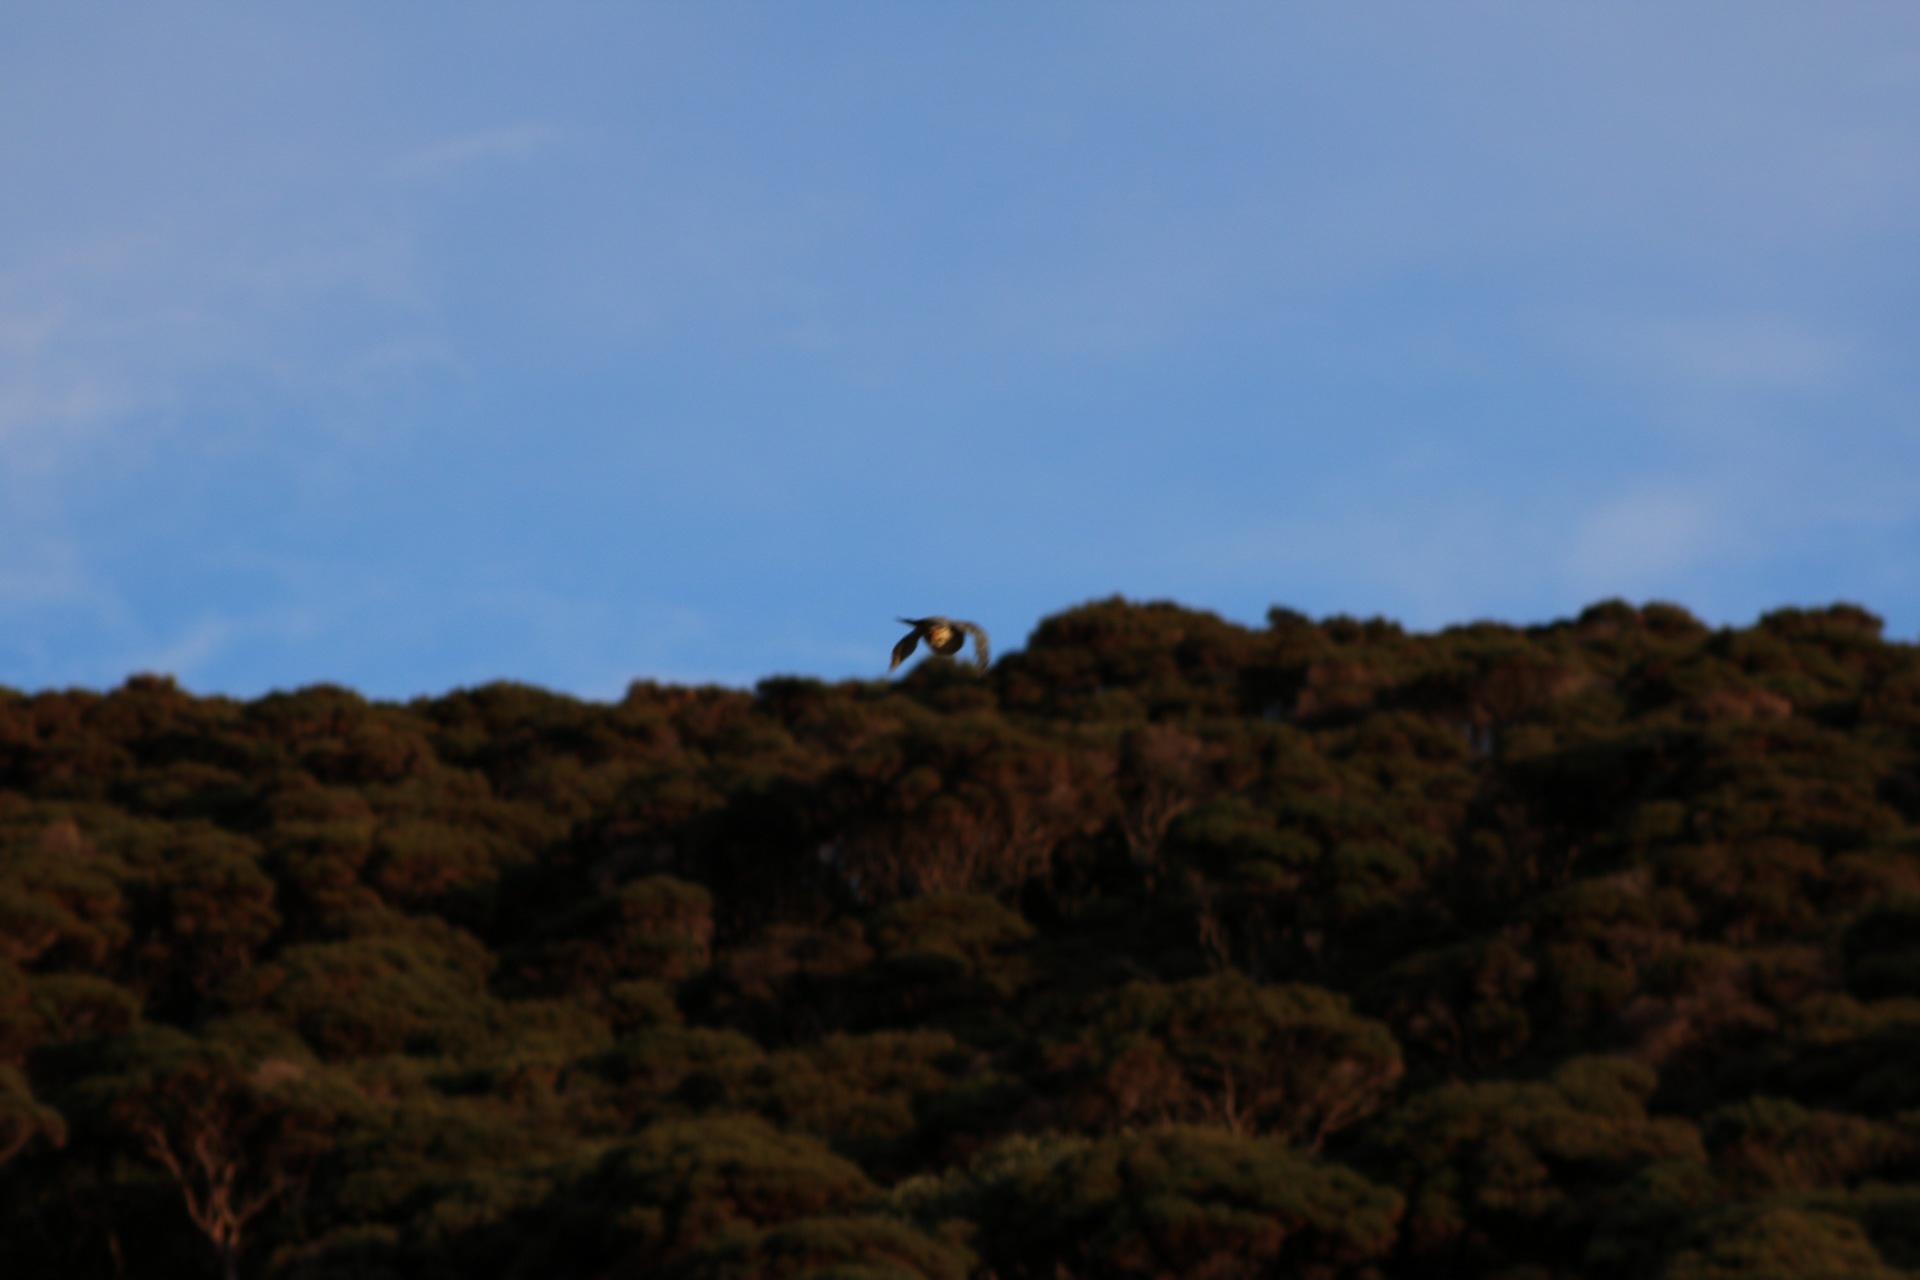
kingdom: Animalia
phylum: Chordata
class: Aves
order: Columbiformes
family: Columbidae
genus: Hemiphaga
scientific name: Hemiphaga novaeseelandiae
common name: New zealand pigeon
